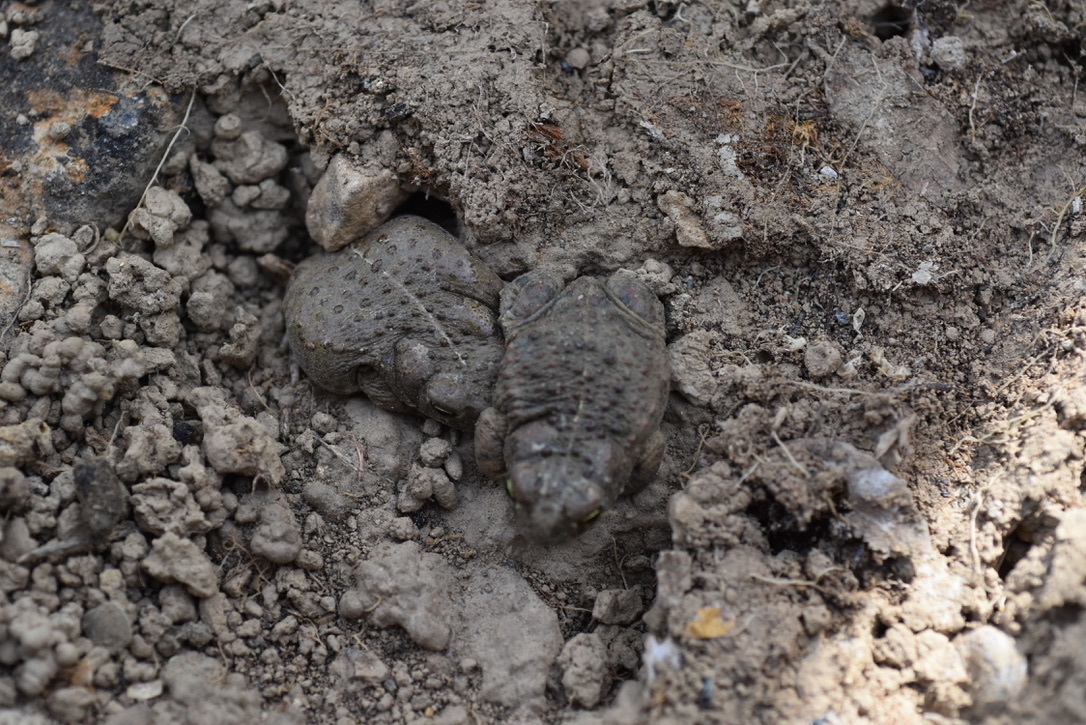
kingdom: Animalia
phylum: Chordata
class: Amphibia
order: Anura
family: Bufonidae
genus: Epidalea
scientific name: Epidalea calamita
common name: Natterjack toad
